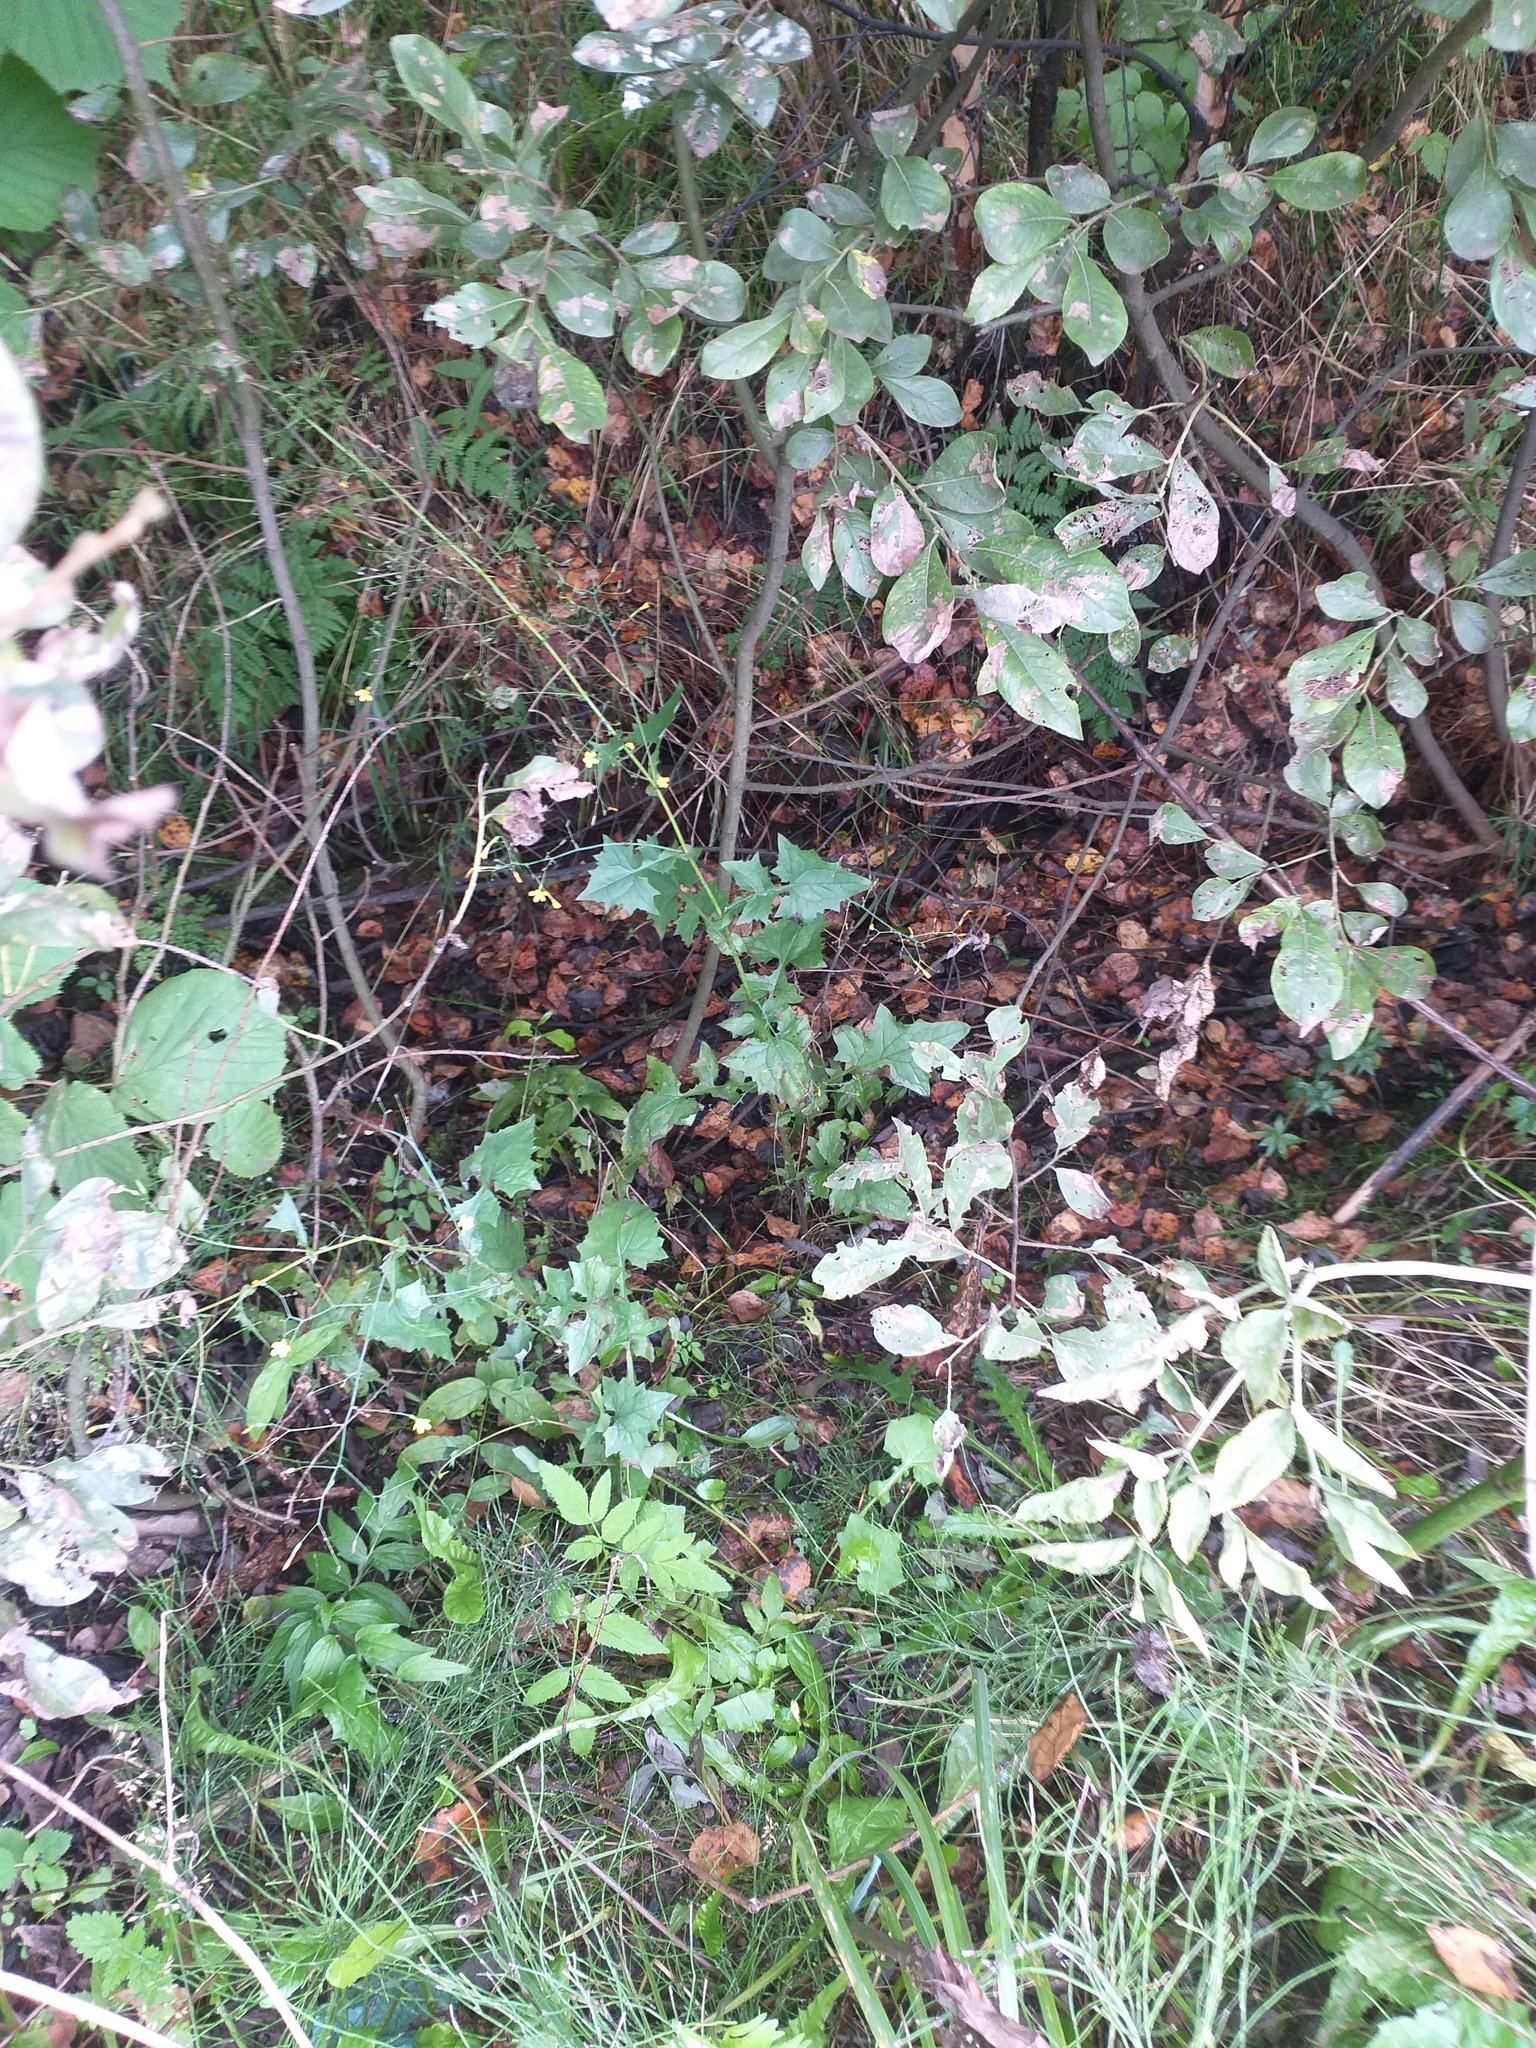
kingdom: Plantae
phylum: Tracheophyta
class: Magnoliopsida
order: Asterales
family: Asteraceae
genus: Mycelis
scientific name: Mycelis muralis
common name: Wall lettuce
